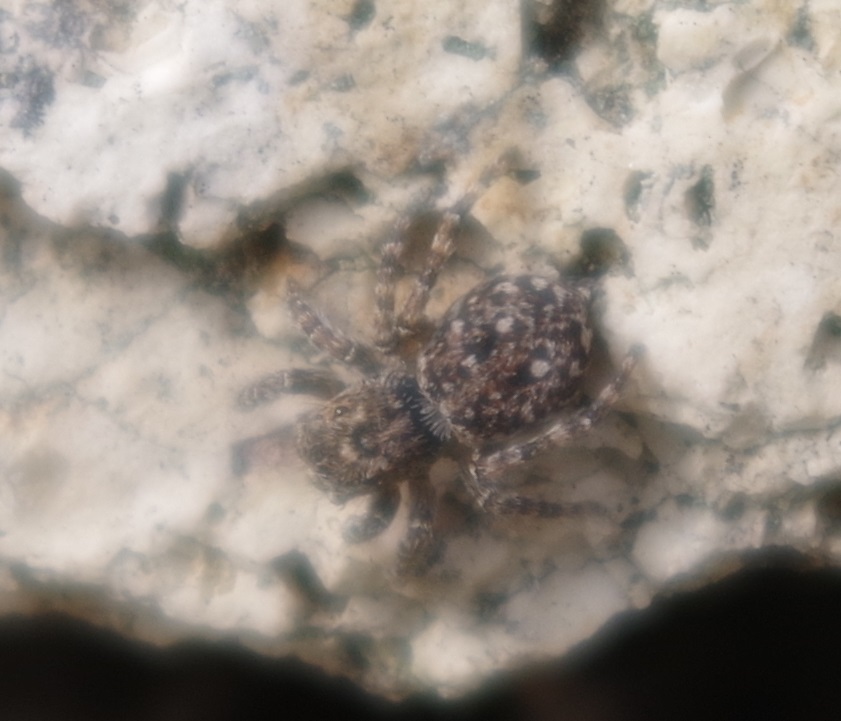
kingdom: Animalia
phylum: Arthropoda
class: Arachnida
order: Araneae
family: Salticidae
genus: Attulus
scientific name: Attulus pubescens
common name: Jumping spider
